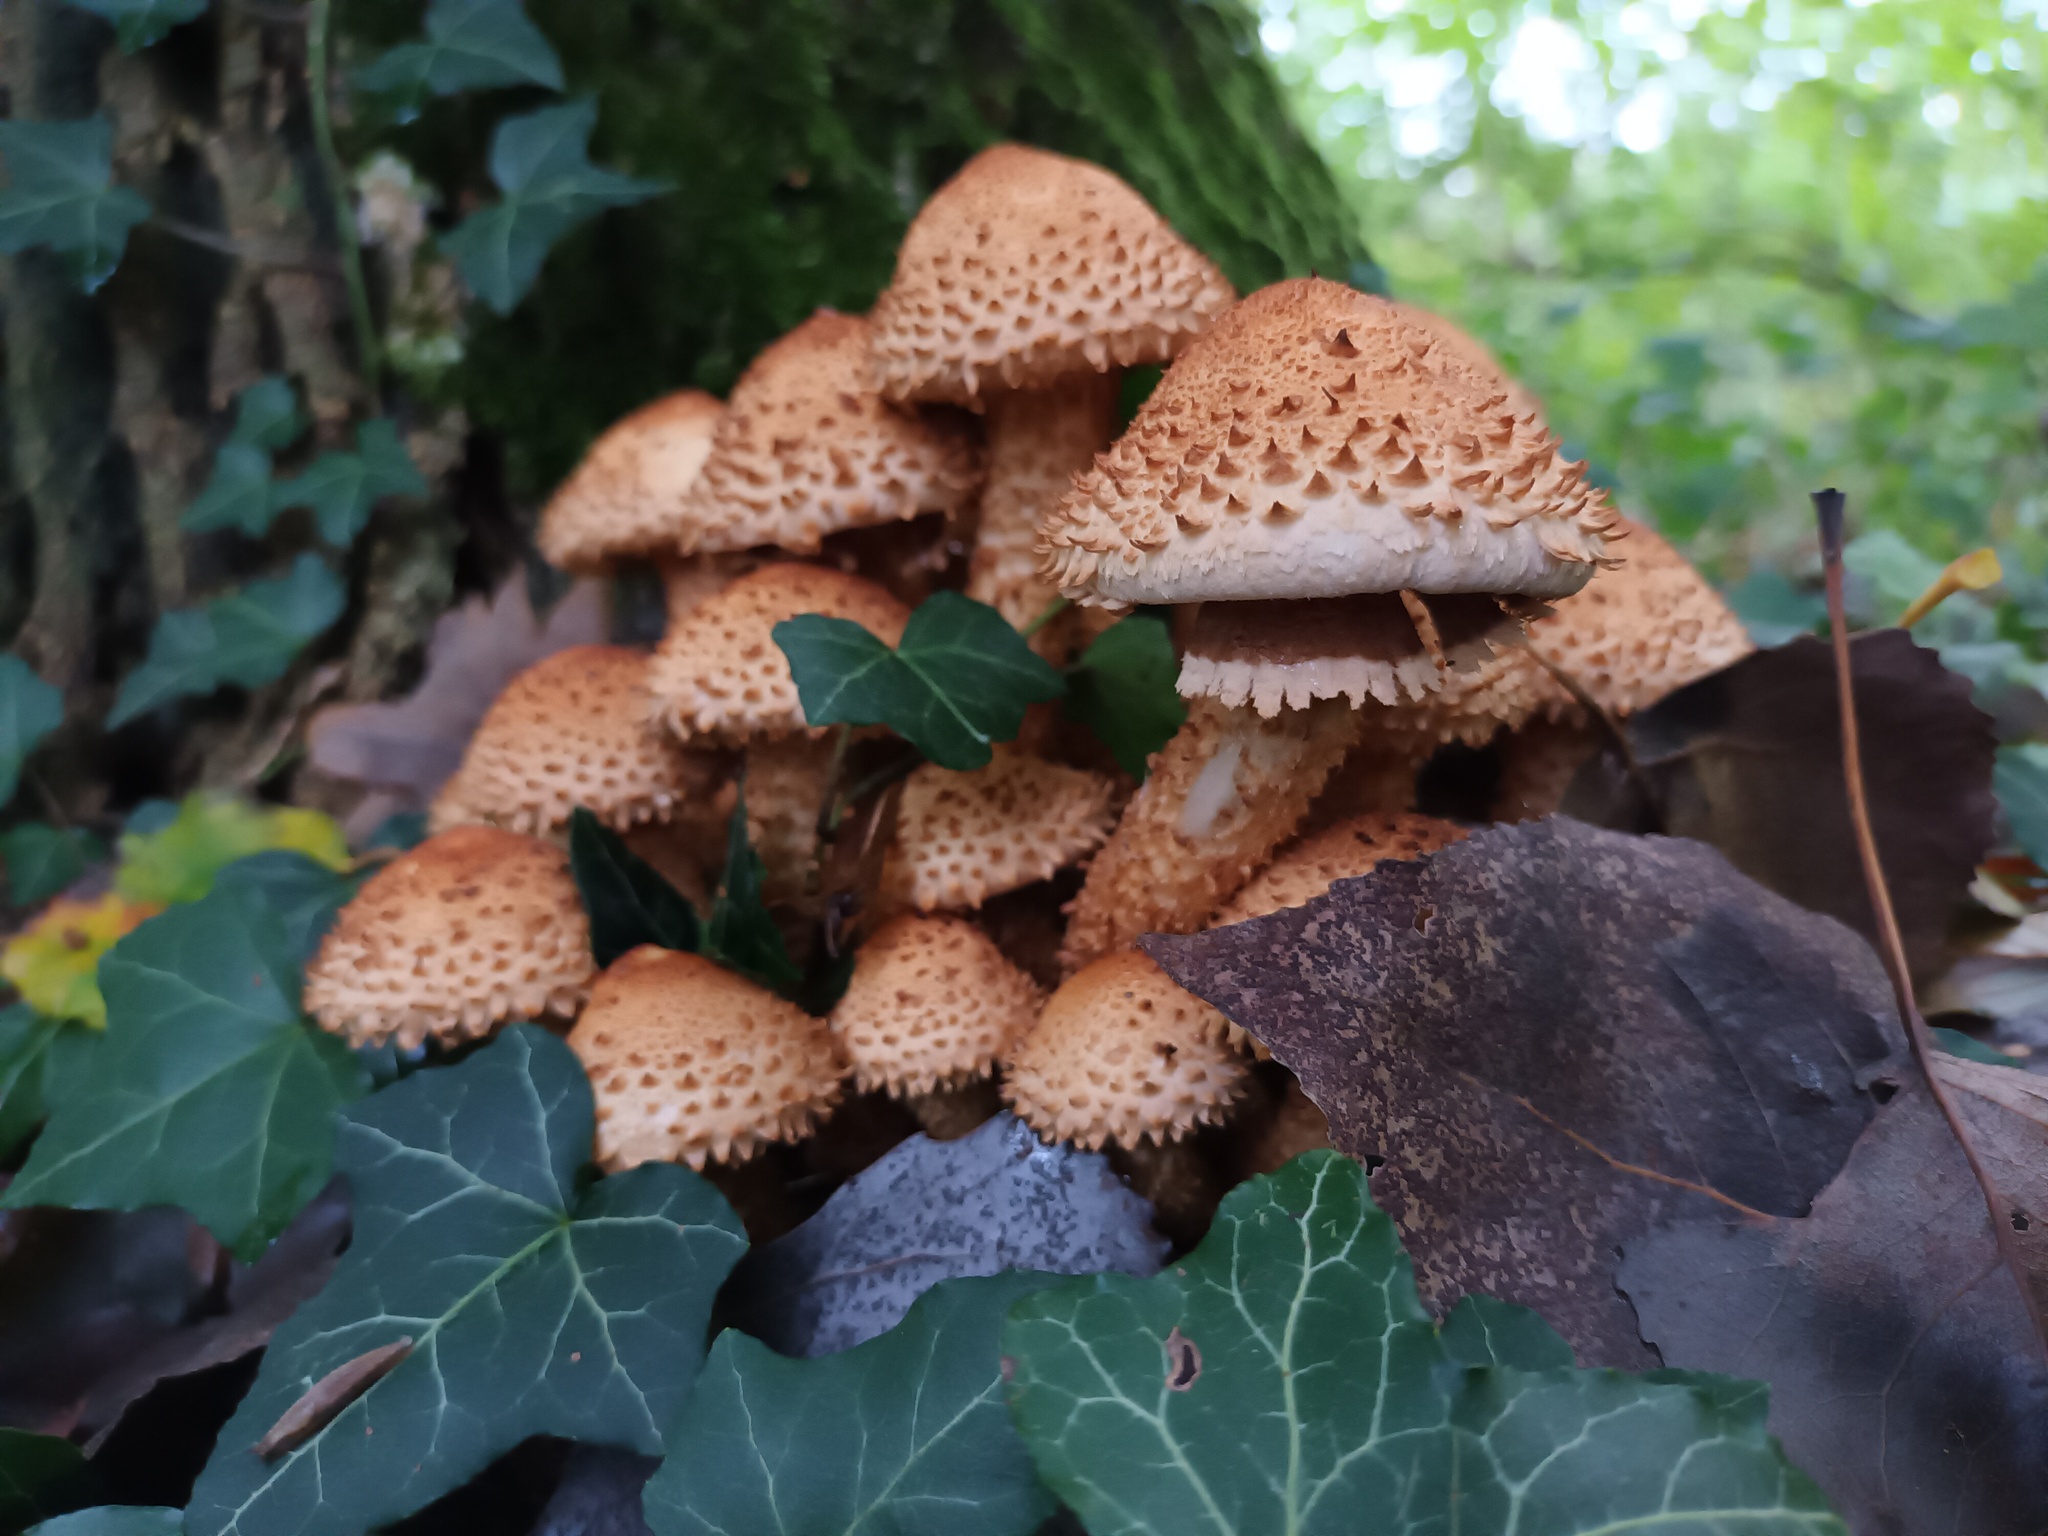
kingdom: Fungi
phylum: Basidiomycota
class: Agaricomycetes
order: Agaricales
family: Strophariaceae
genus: Pholiota
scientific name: Pholiota squarrosa
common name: Shaggy pholiota
